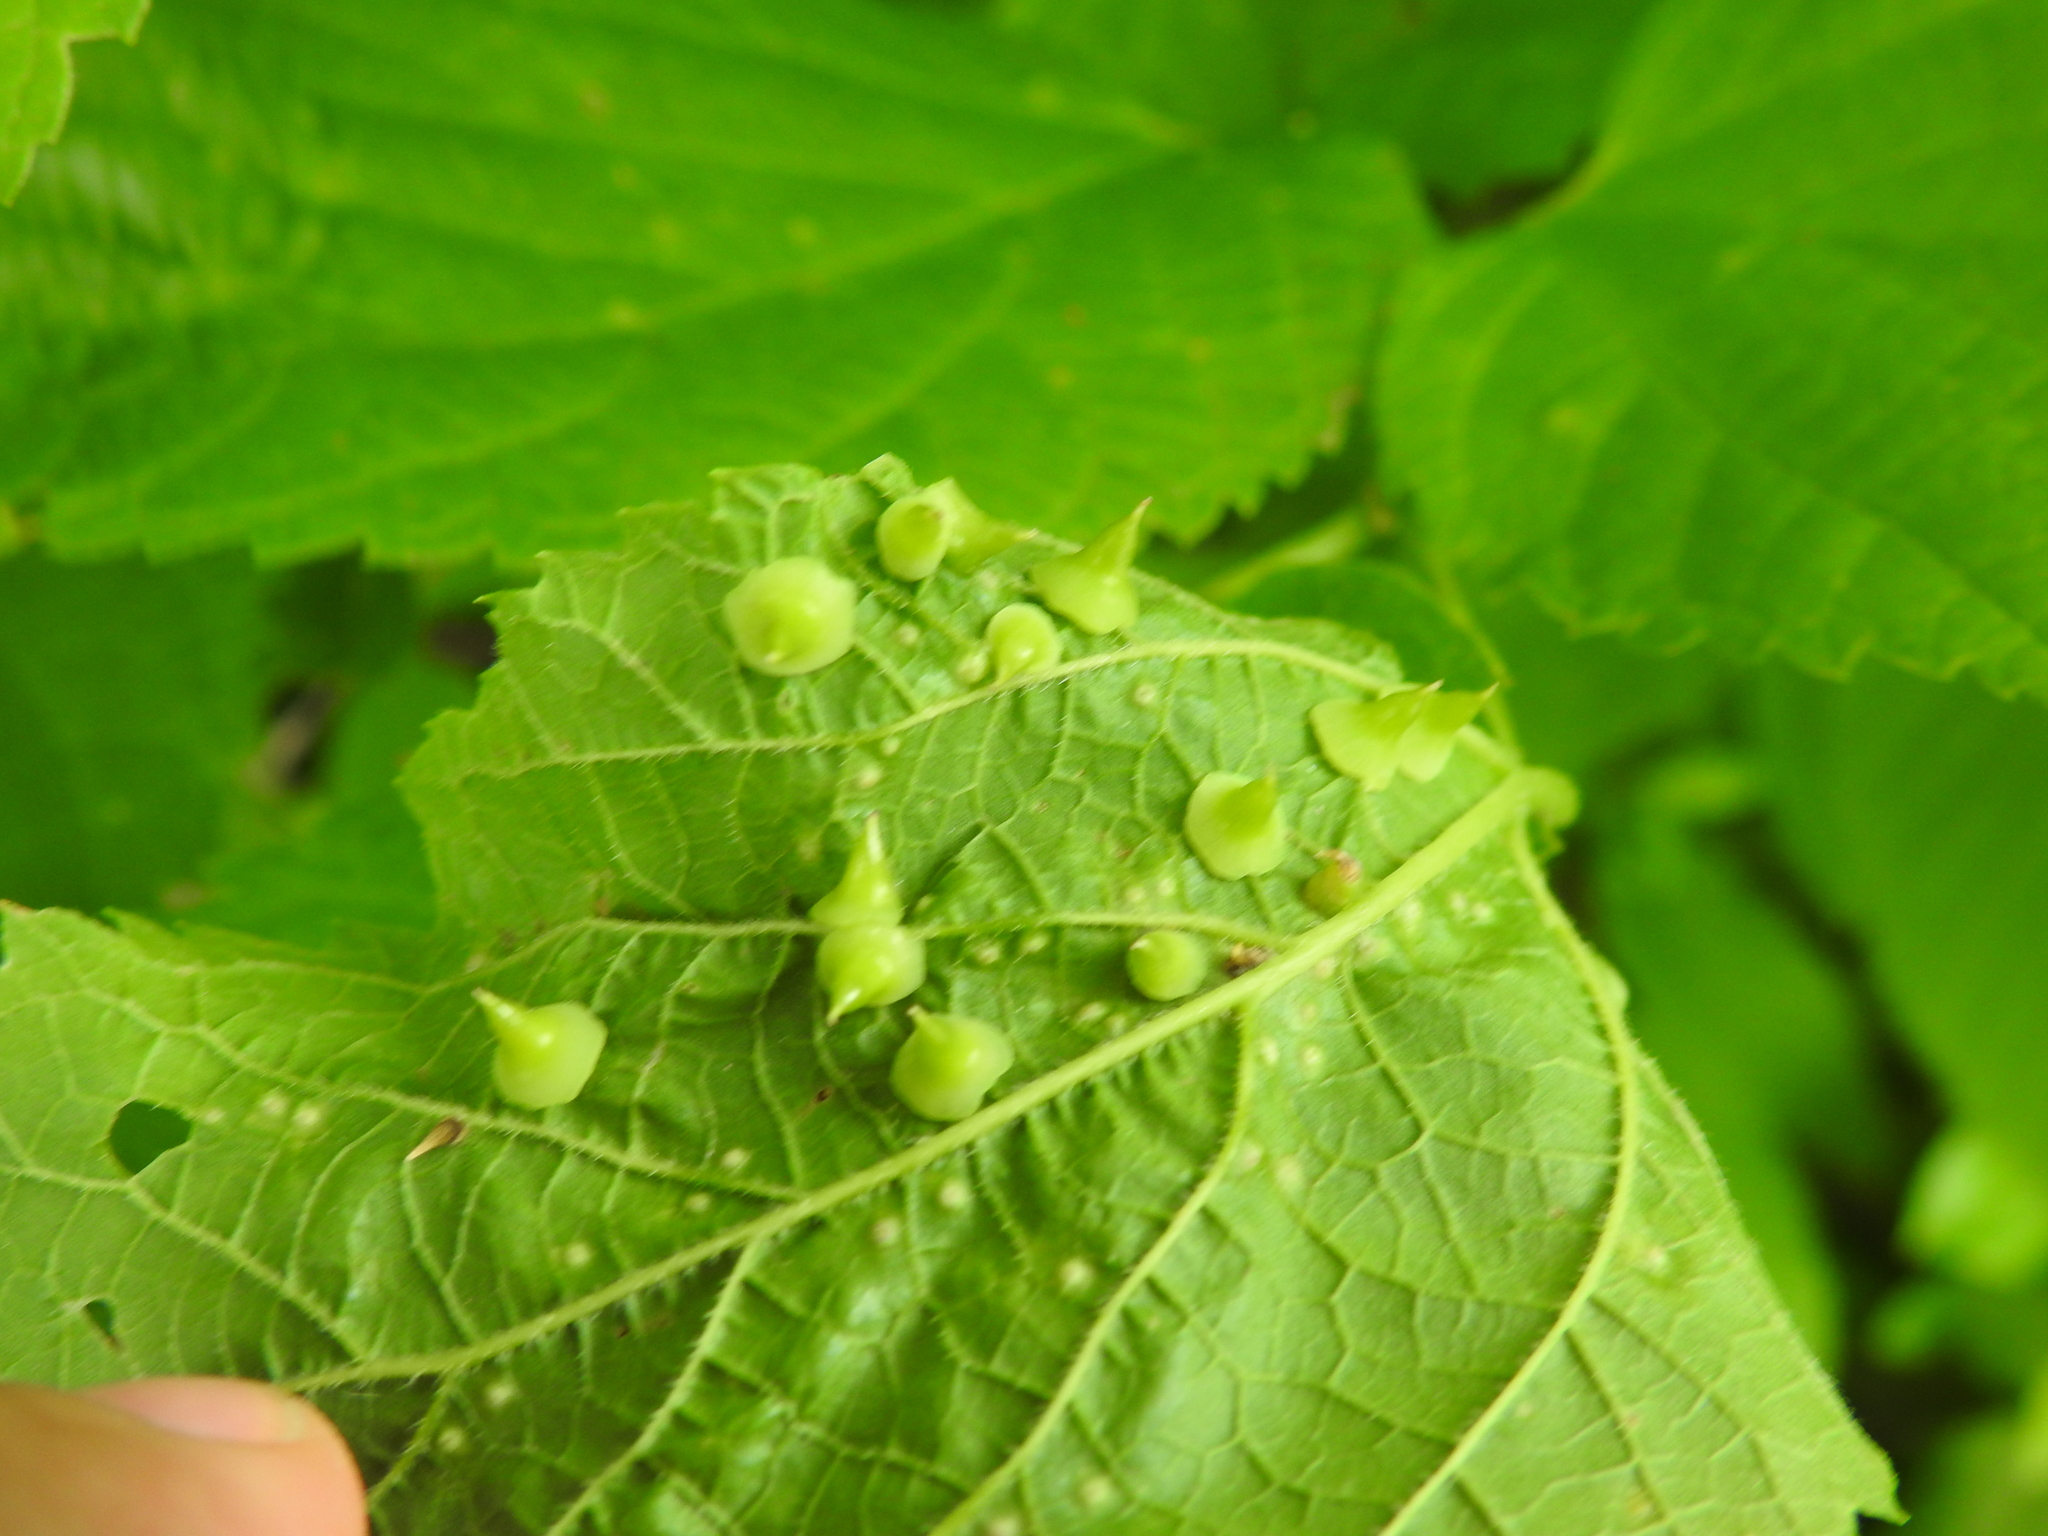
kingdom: Animalia
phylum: Arthropoda
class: Insecta
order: Diptera
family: Cecidomyiidae
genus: Celticecis
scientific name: Celticecis spiniformis
